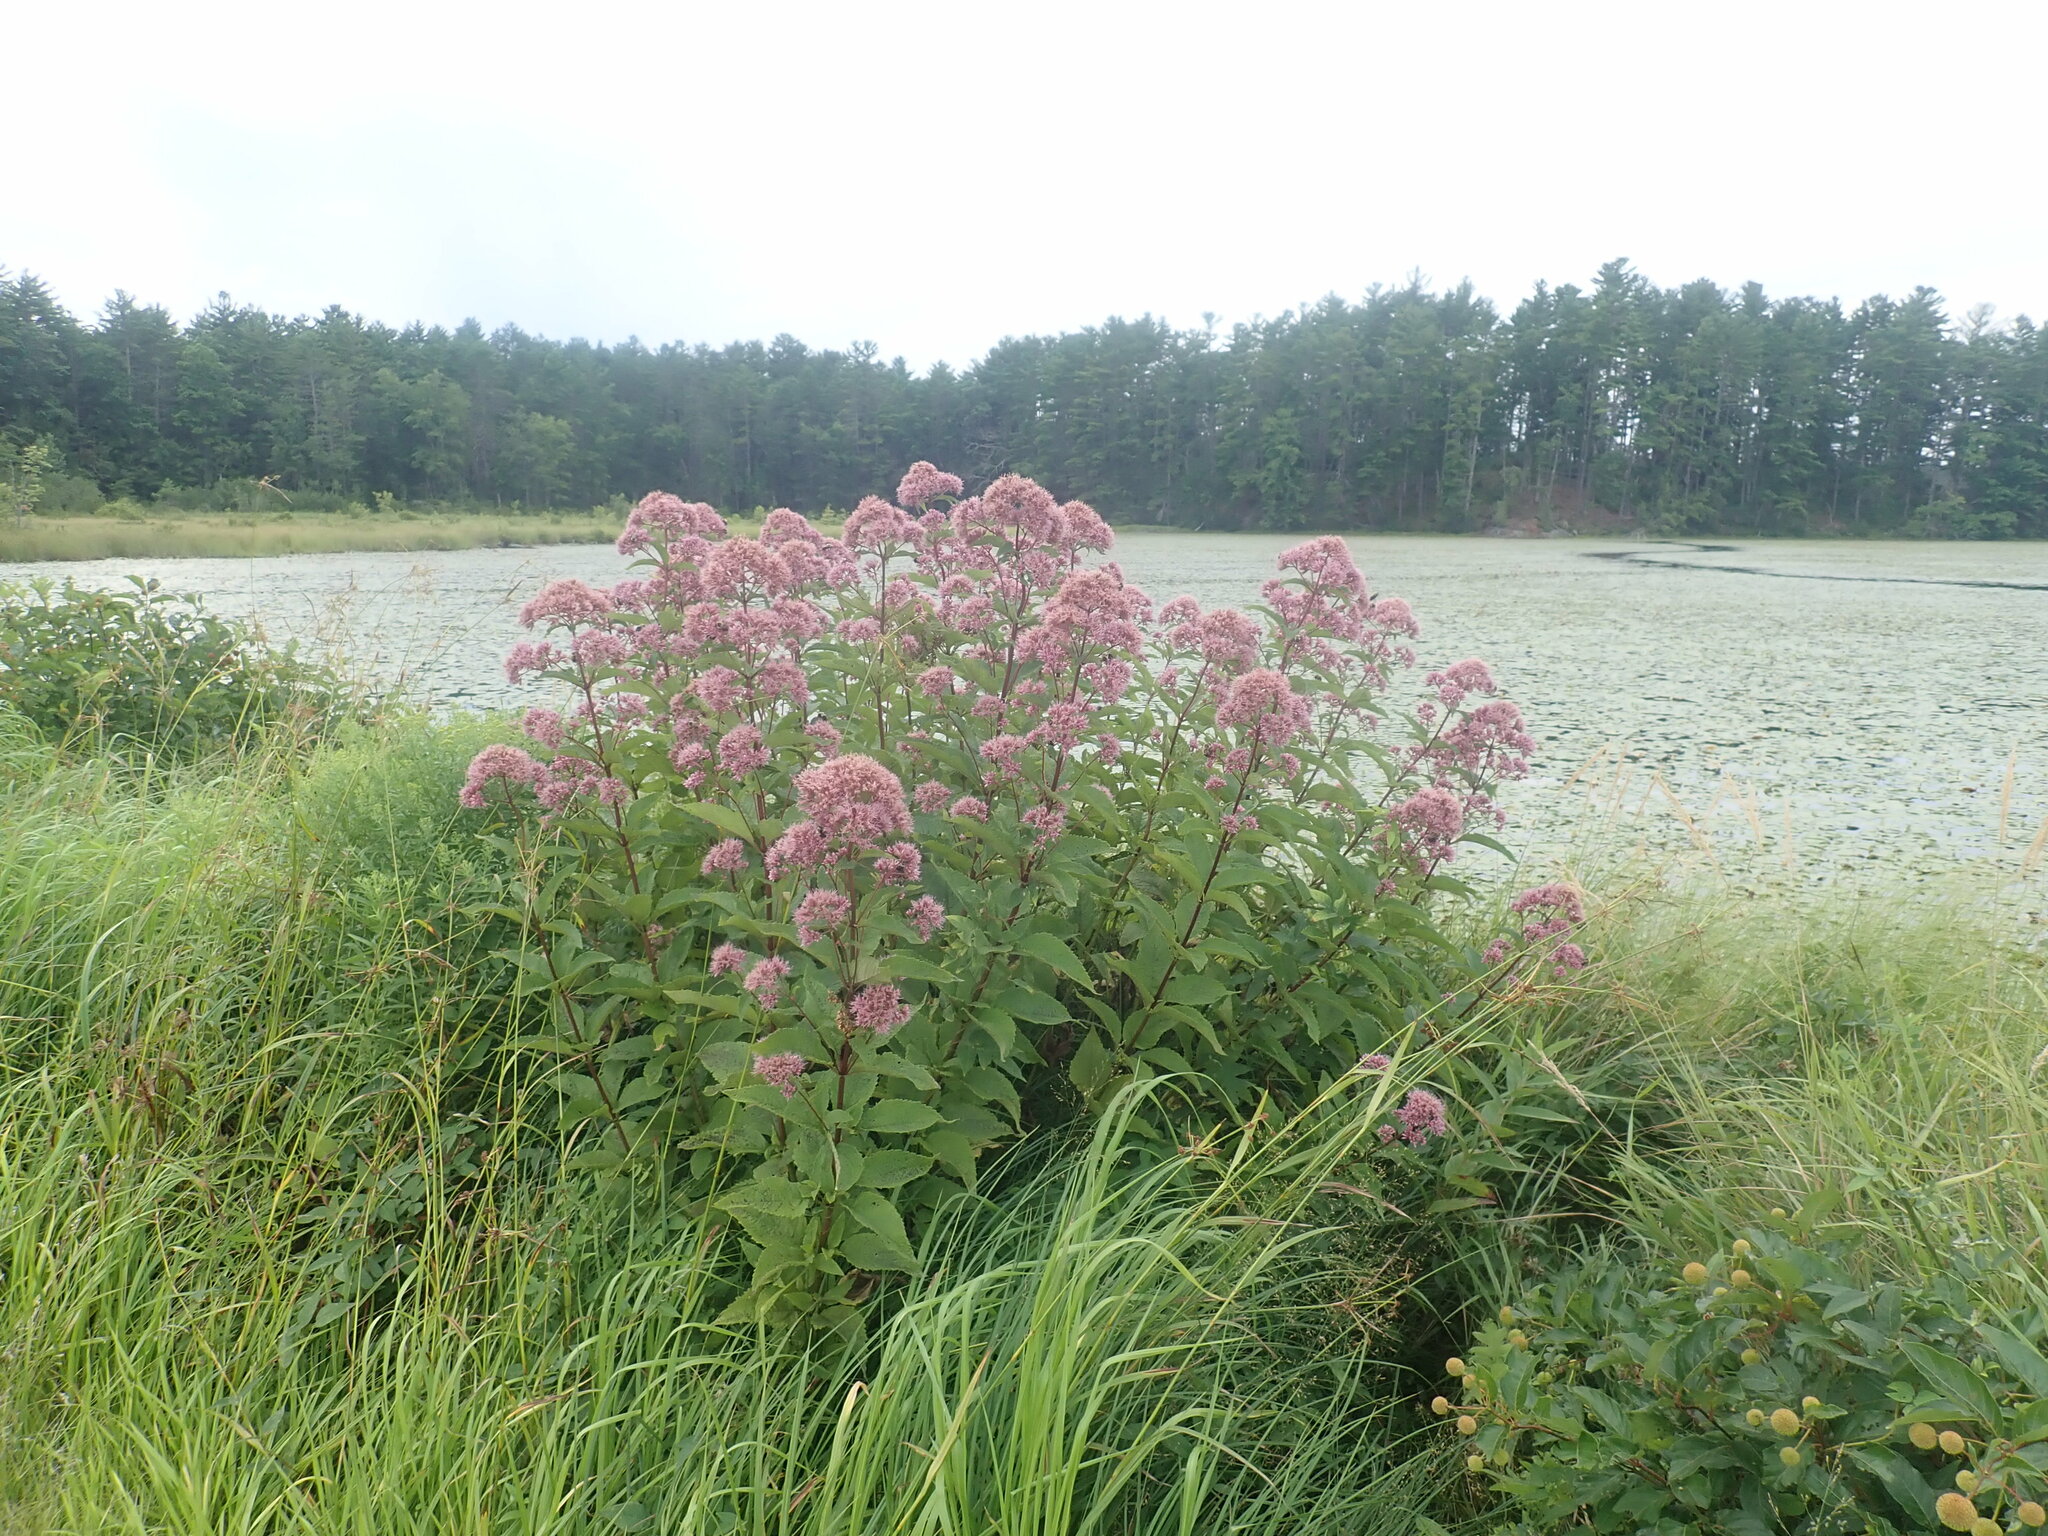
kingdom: Plantae
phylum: Tracheophyta
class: Magnoliopsida
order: Asterales
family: Asteraceae
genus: Eutrochium
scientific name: Eutrochium
